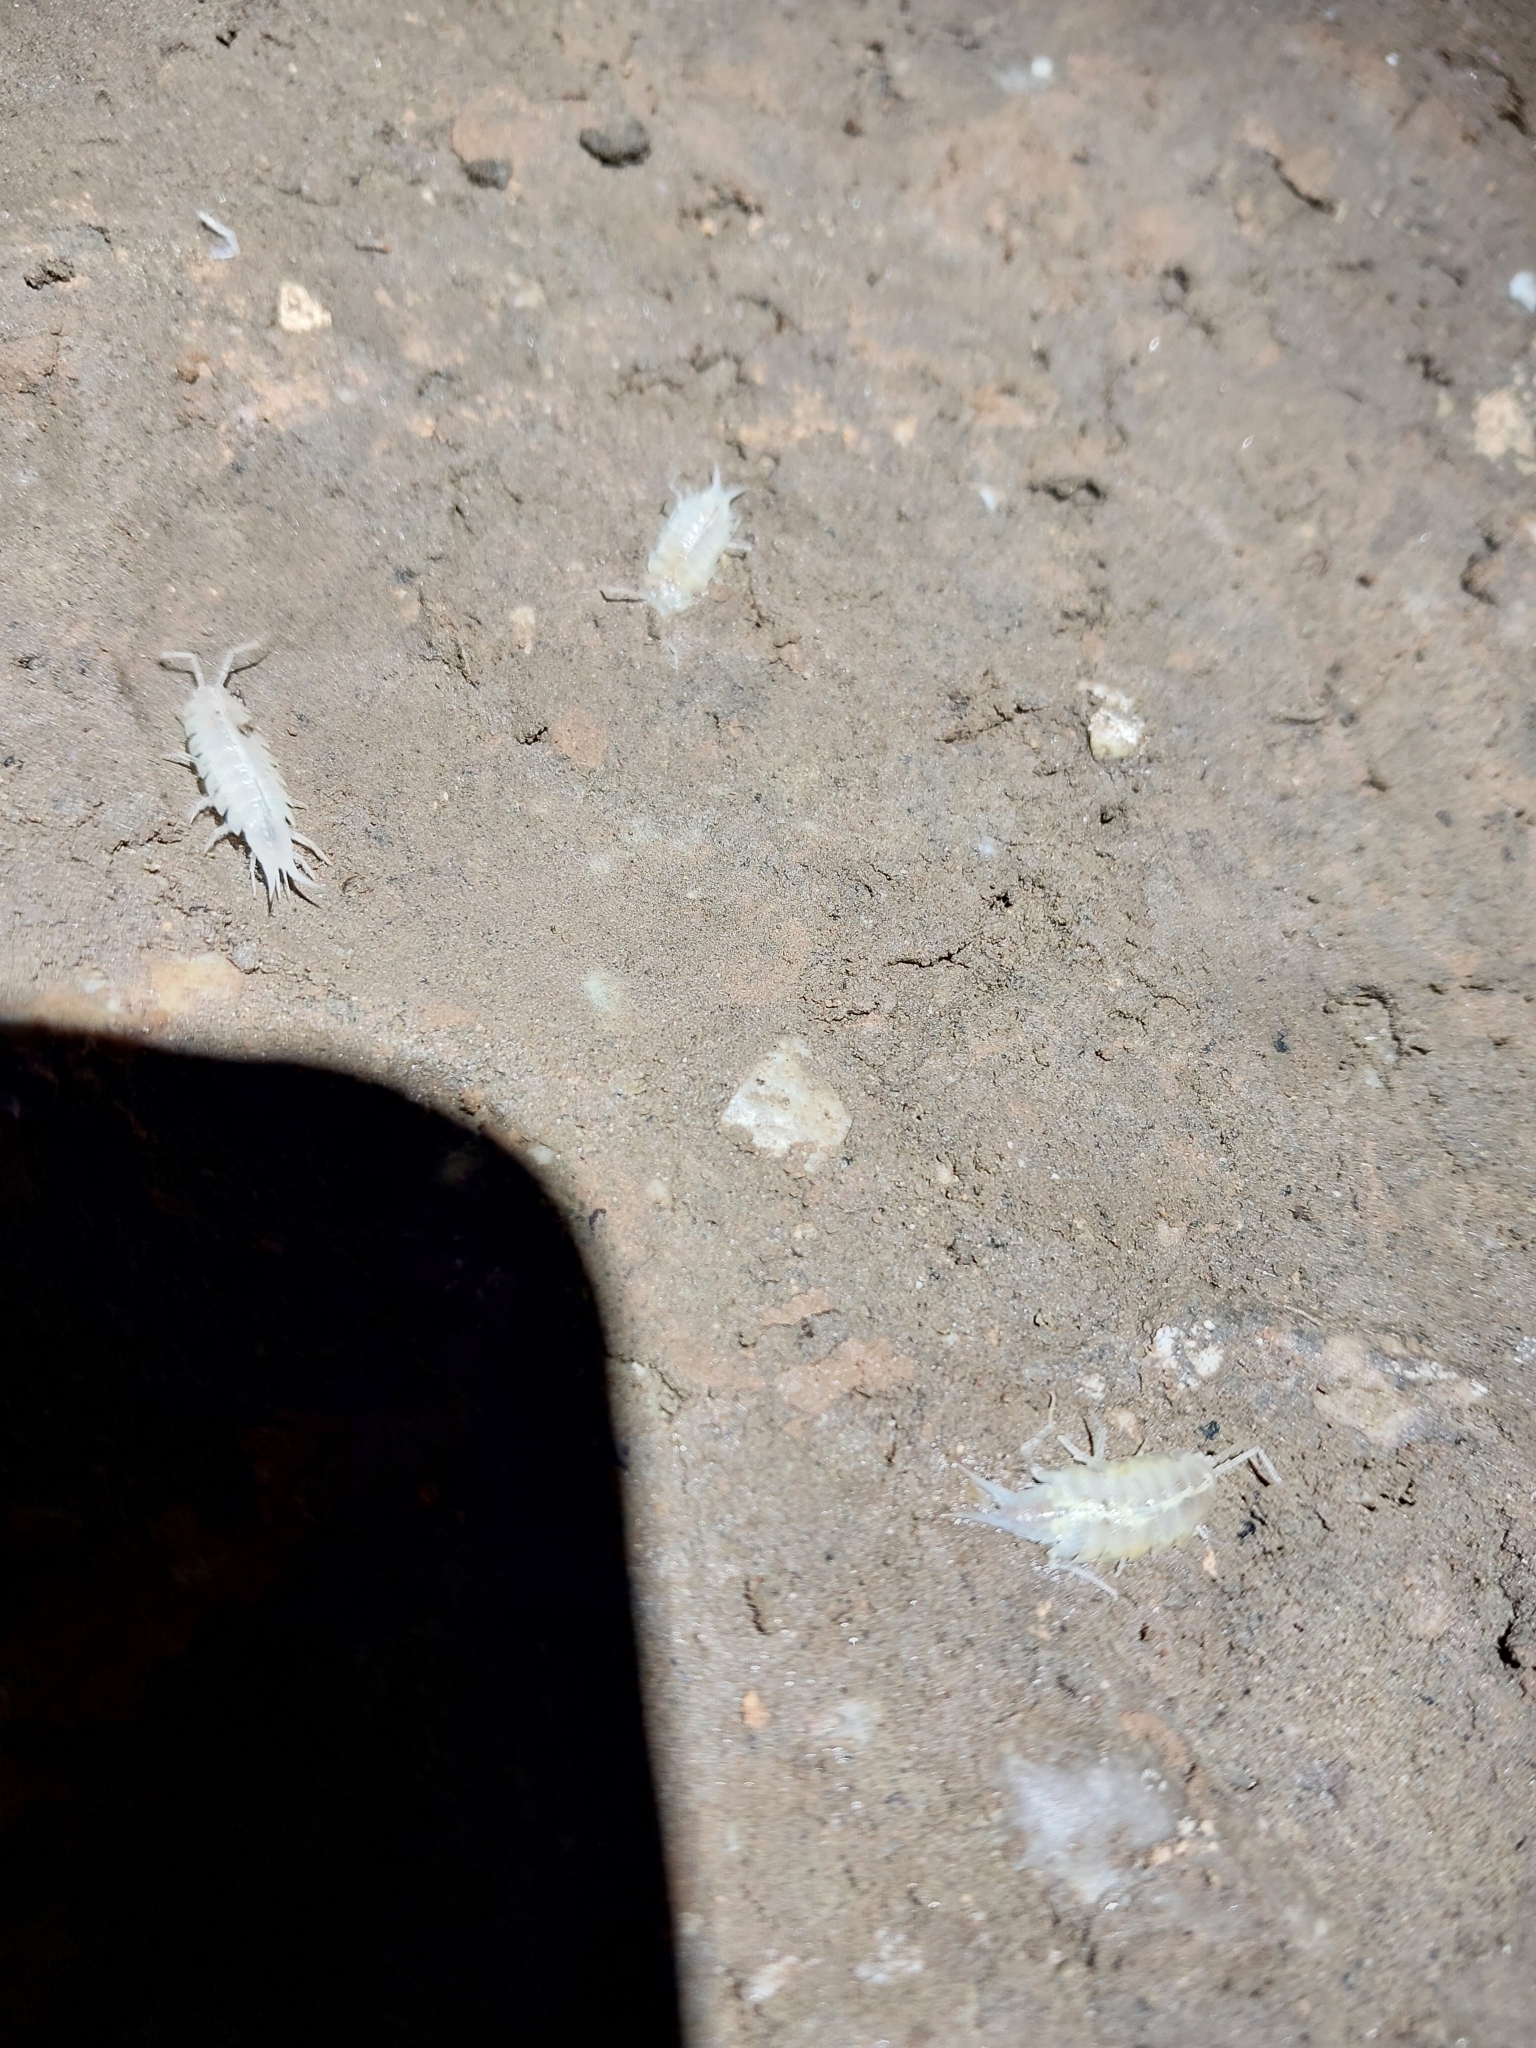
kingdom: Animalia
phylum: Arthropoda
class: Malacostraca
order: Isopoda
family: Trichoniscidae
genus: Titanethes
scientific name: Titanethes albus
